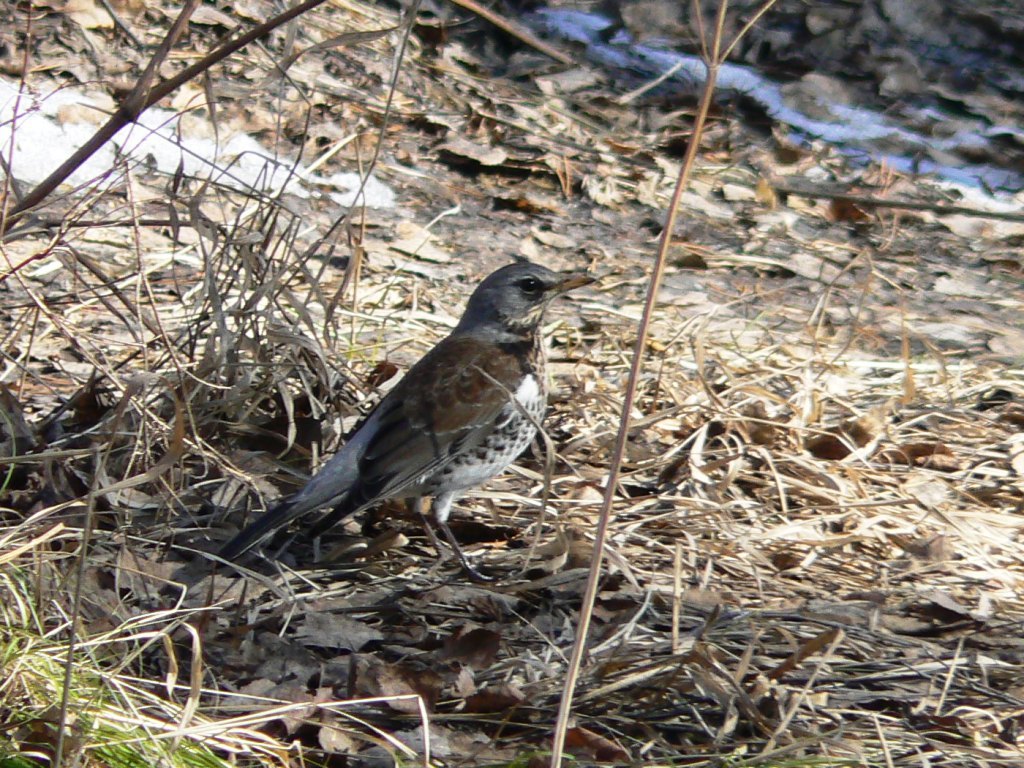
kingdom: Animalia
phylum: Chordata
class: Aves
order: Passeriformes
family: Turdidae
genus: Turdus
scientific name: Turdus pilaris
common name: Fieldfare
